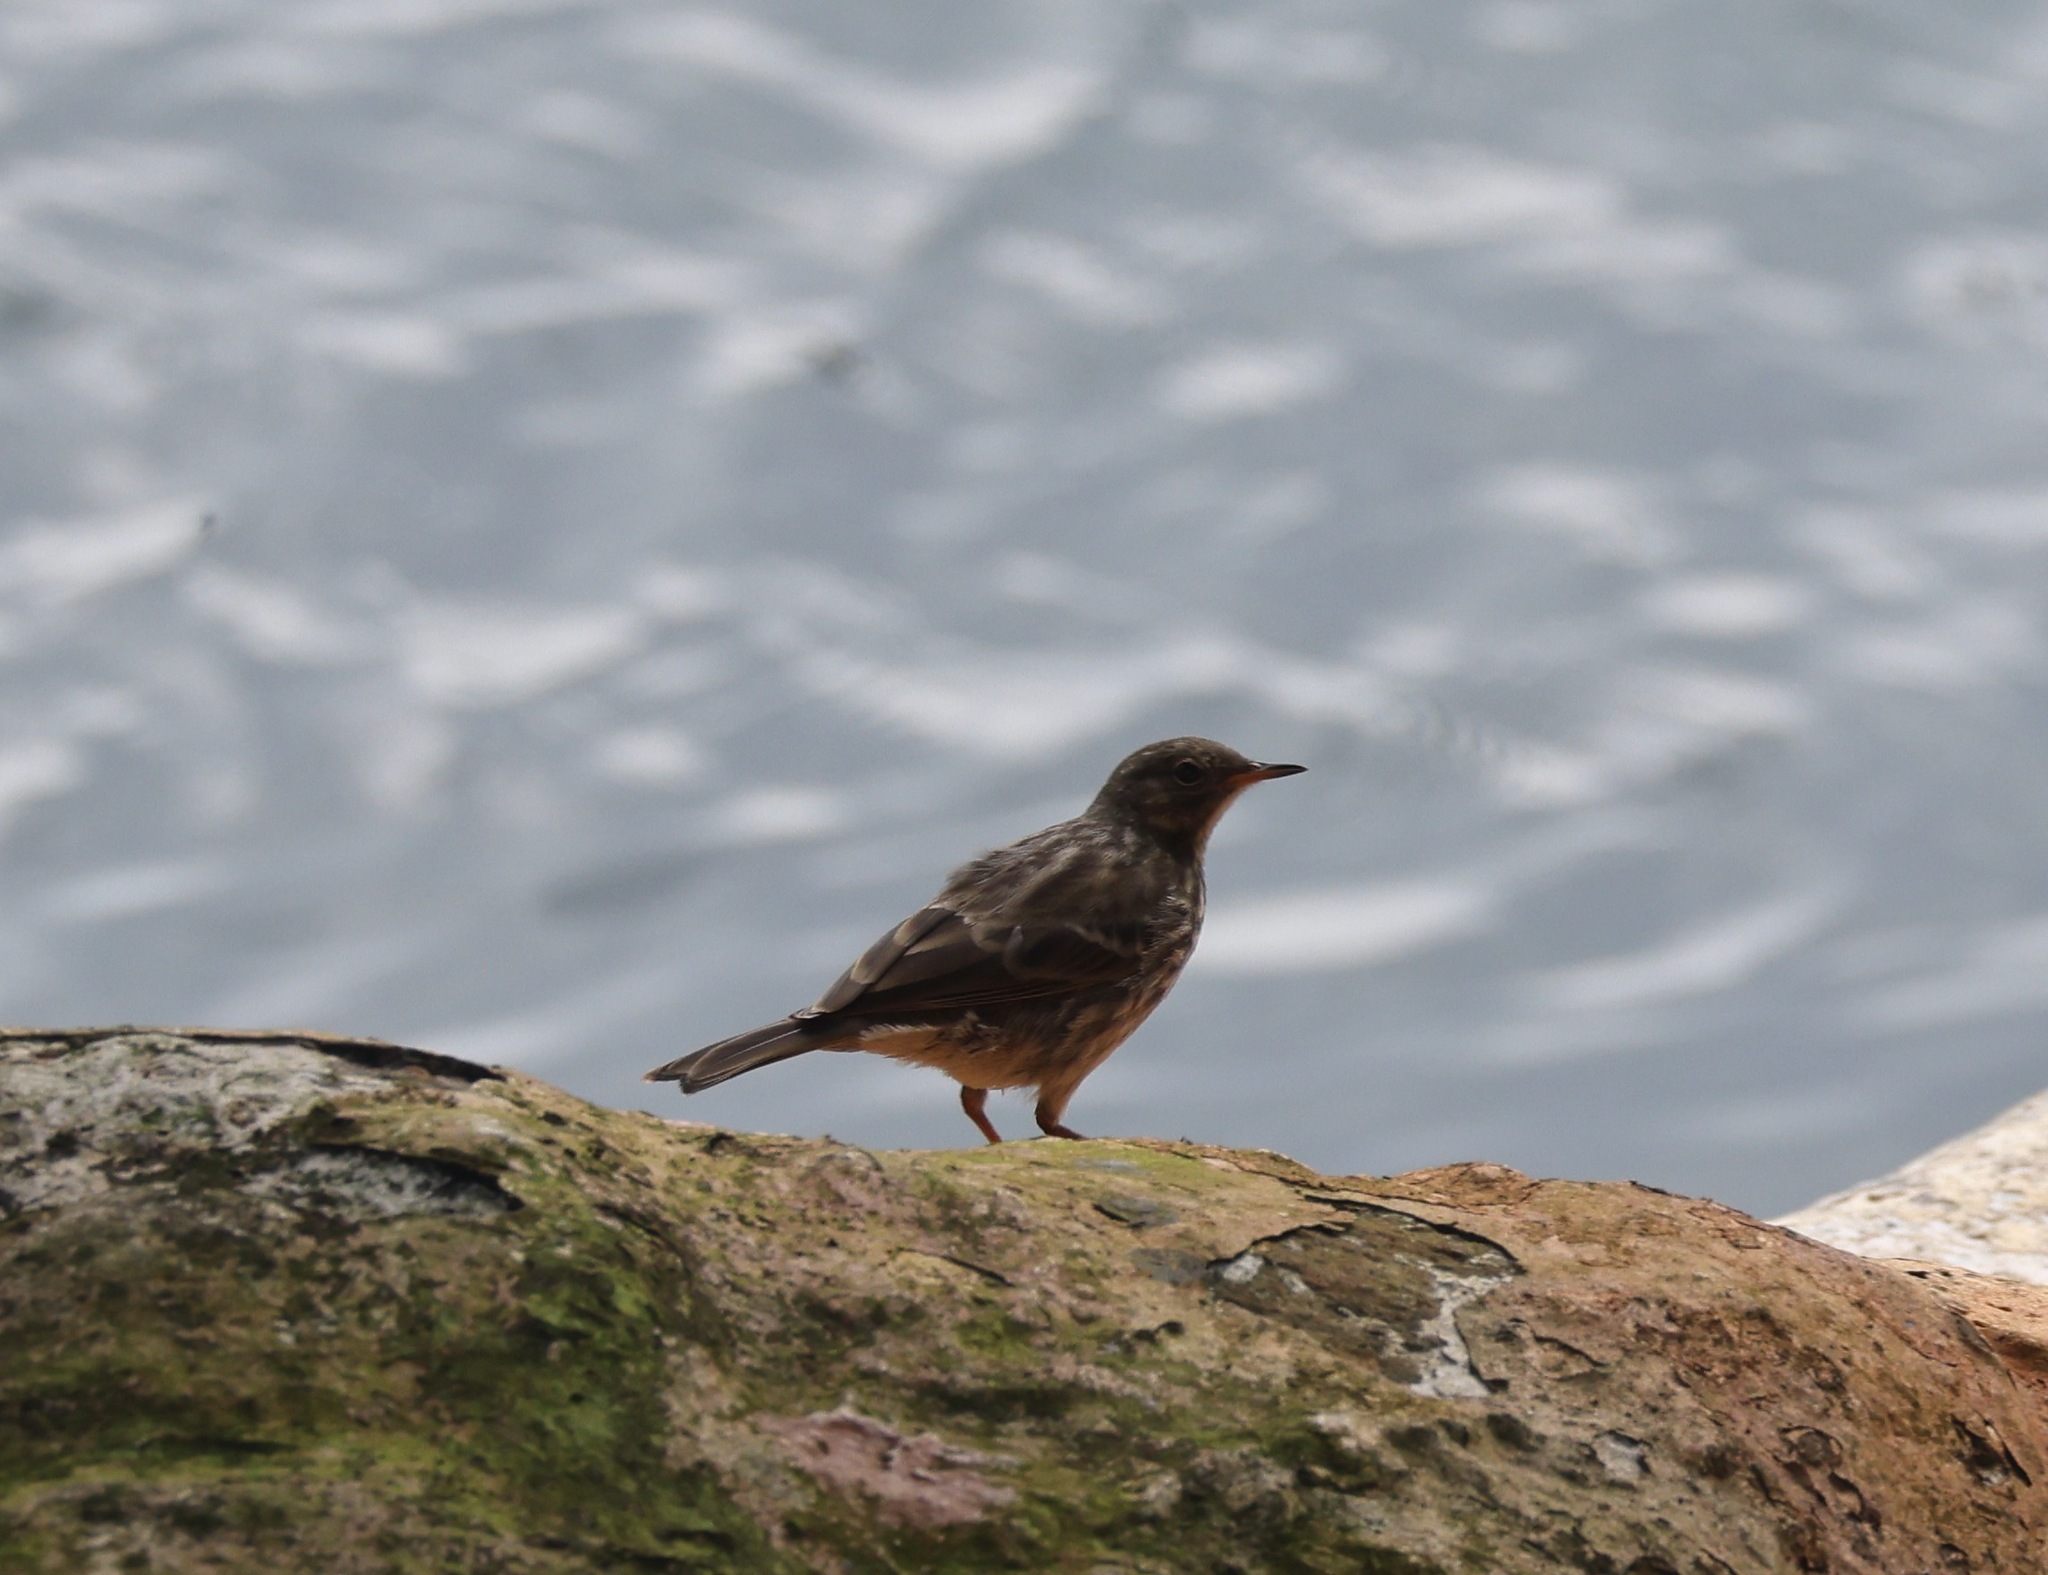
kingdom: Animalia
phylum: Chordata
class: Aves
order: Passeriformes
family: Motacillidae
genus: Anthus
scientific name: Anthus petrosus
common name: Eurasian rock pipit
